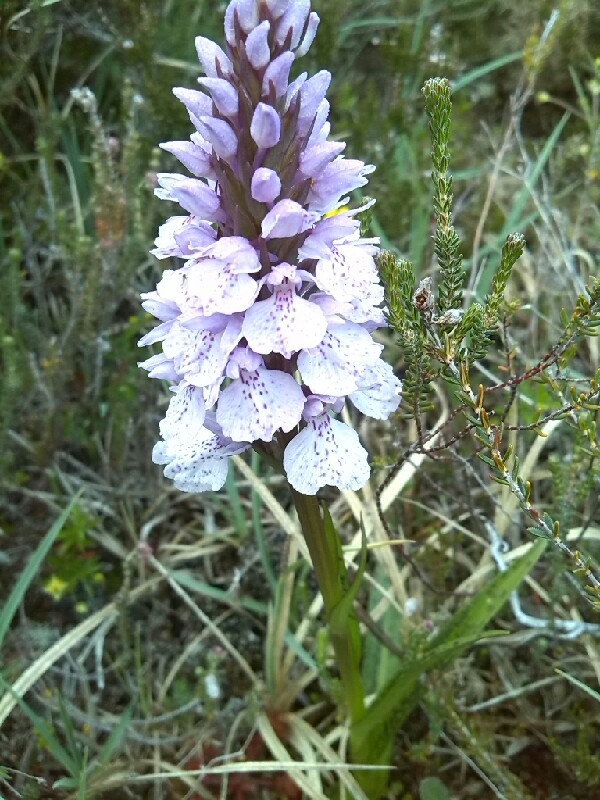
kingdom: Plantae
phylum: Tracheophyta
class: Liliopsida
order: Asparagales
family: Orchidaceae
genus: Dactylorhiza
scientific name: Dactylorhiza maculata
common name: Heath spotted-orchid
